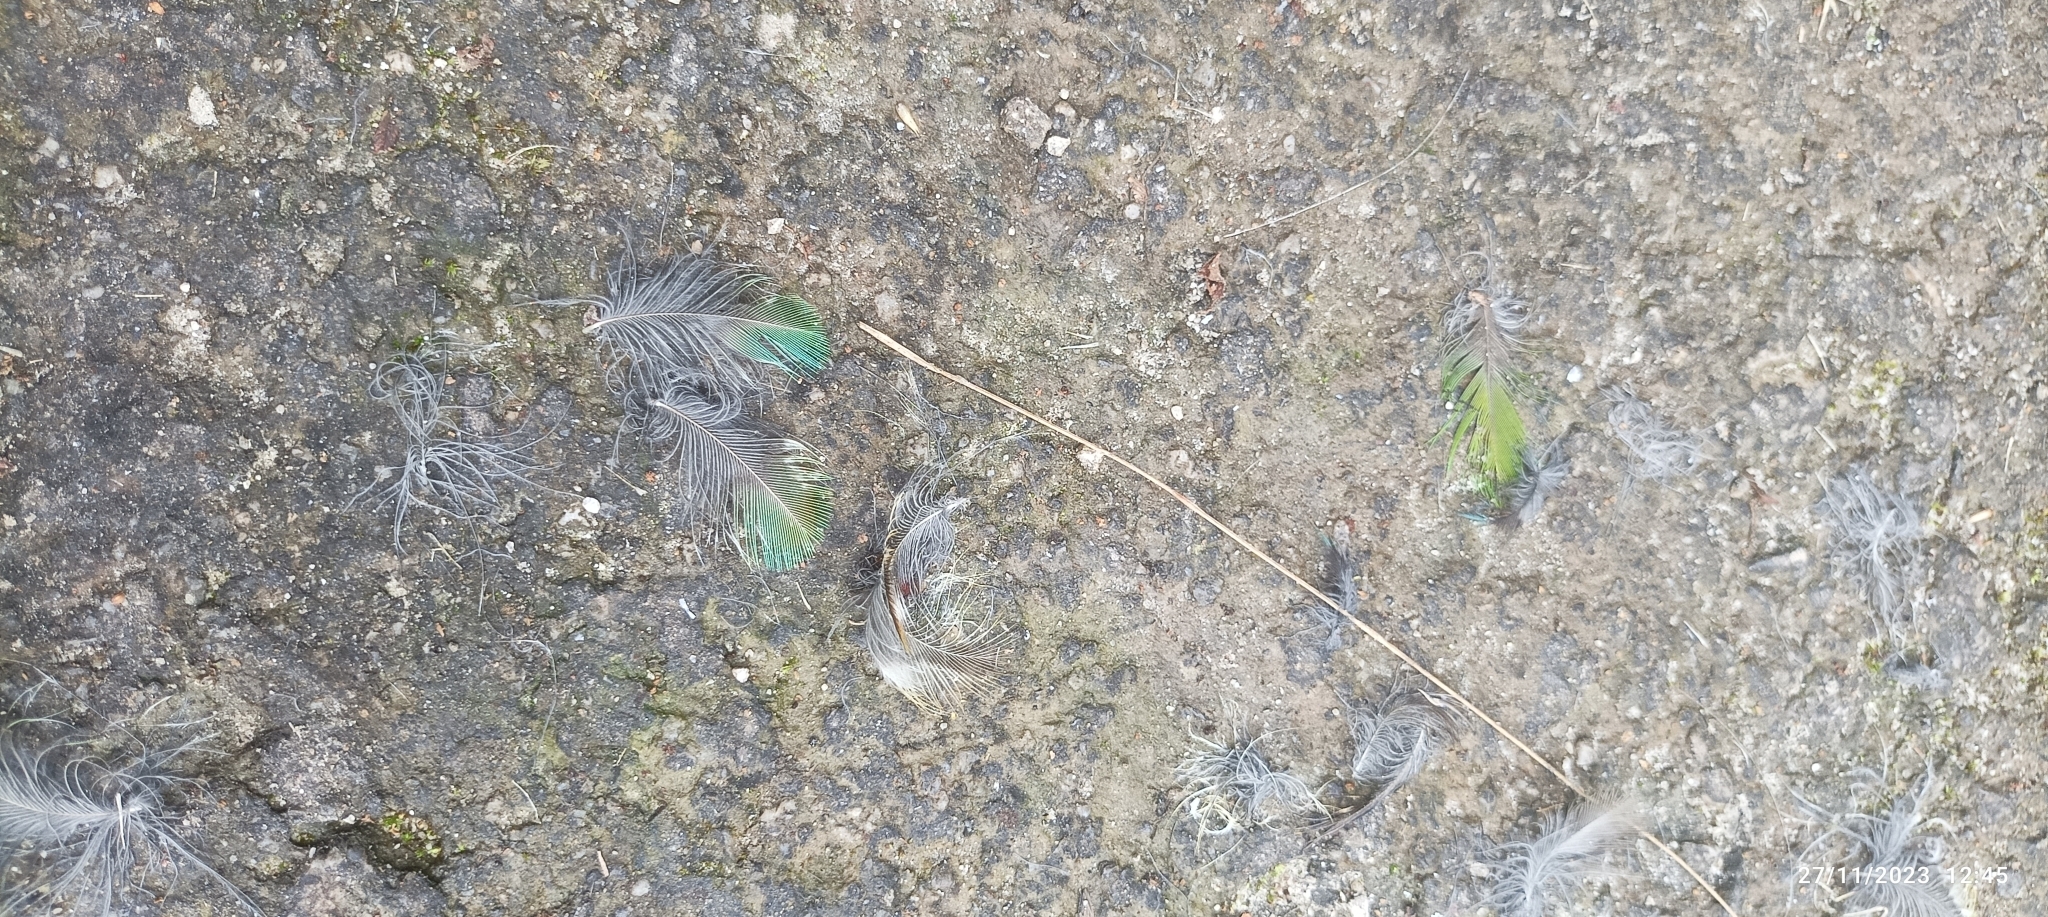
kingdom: Animalia
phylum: Chordata
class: Aves
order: Piciformes
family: Megalaimidae
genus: Psilopogon
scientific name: Psilopogon virens
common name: Great barbet
